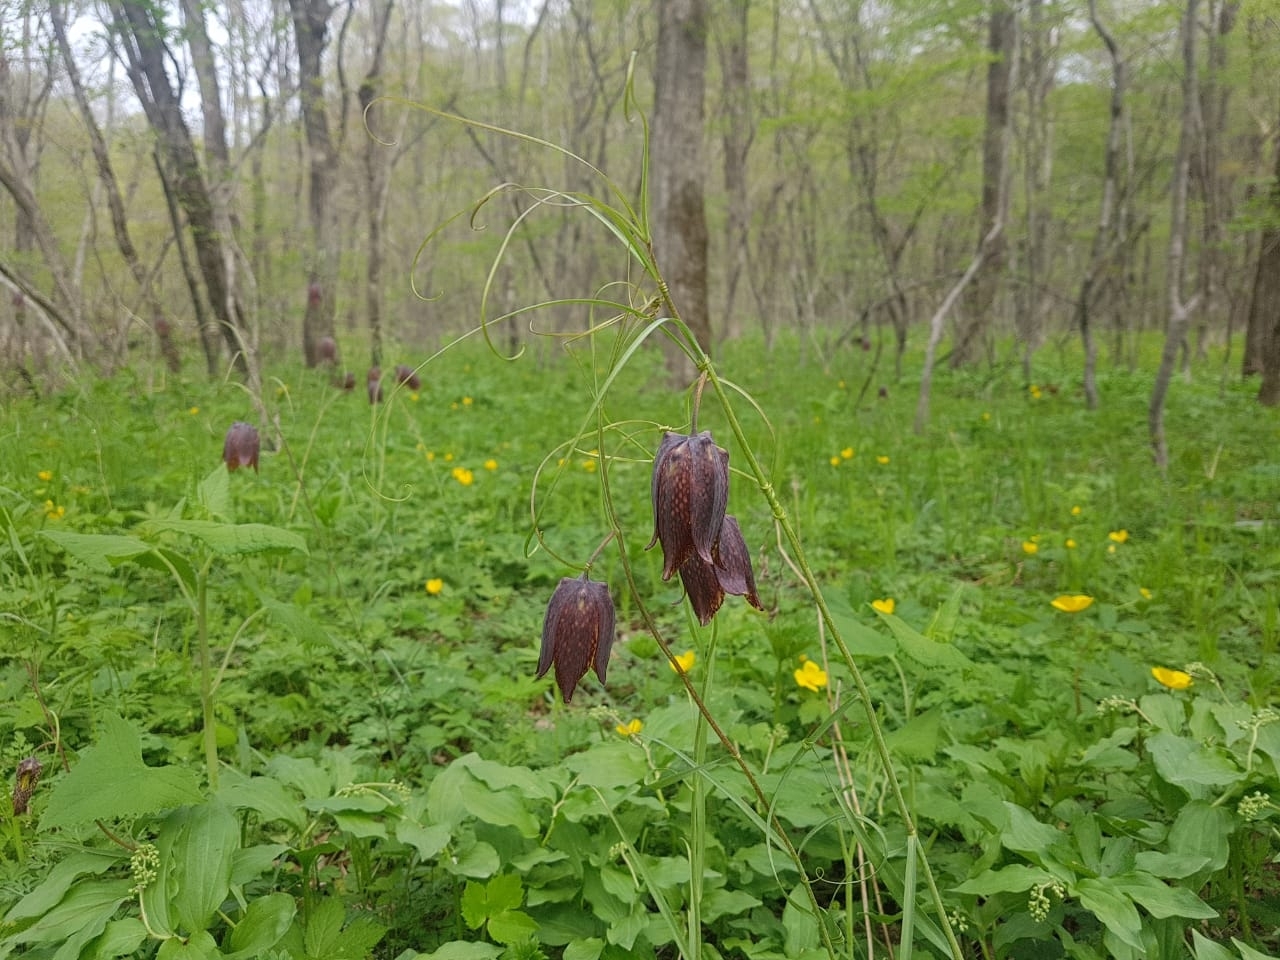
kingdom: Plantae
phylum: Tracheophyta
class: Liliopsida
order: Liliales
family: Liliaceae
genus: Fritillaria
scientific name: Fritillaria usuriensis
